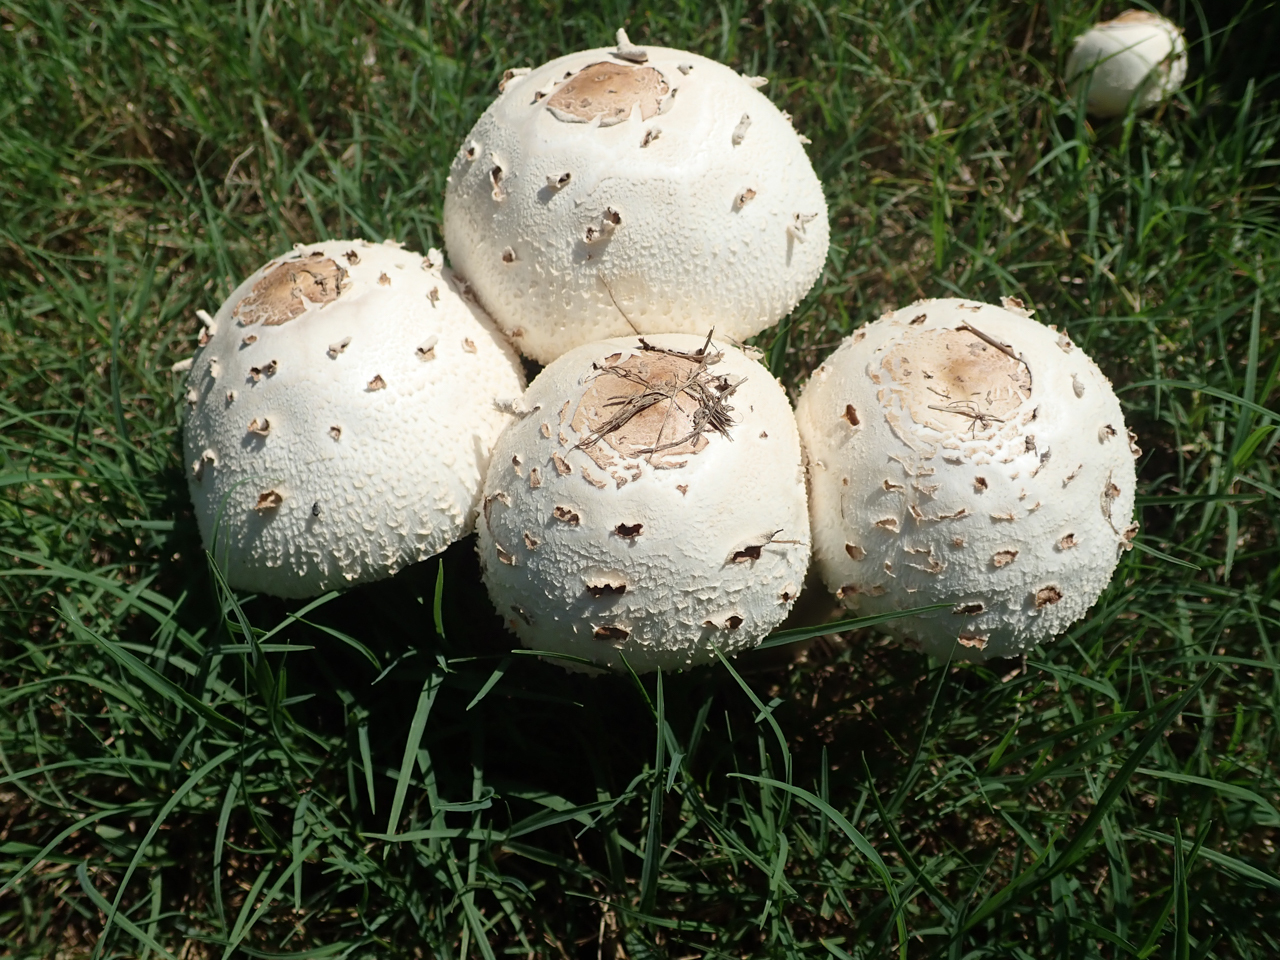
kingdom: Fungi
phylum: Basidiomycota
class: Agaricomycetes
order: Agaricales
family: Agaricaceae
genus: Chlorophyllum
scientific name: Chlorophyllum molybdites
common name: False parasol
